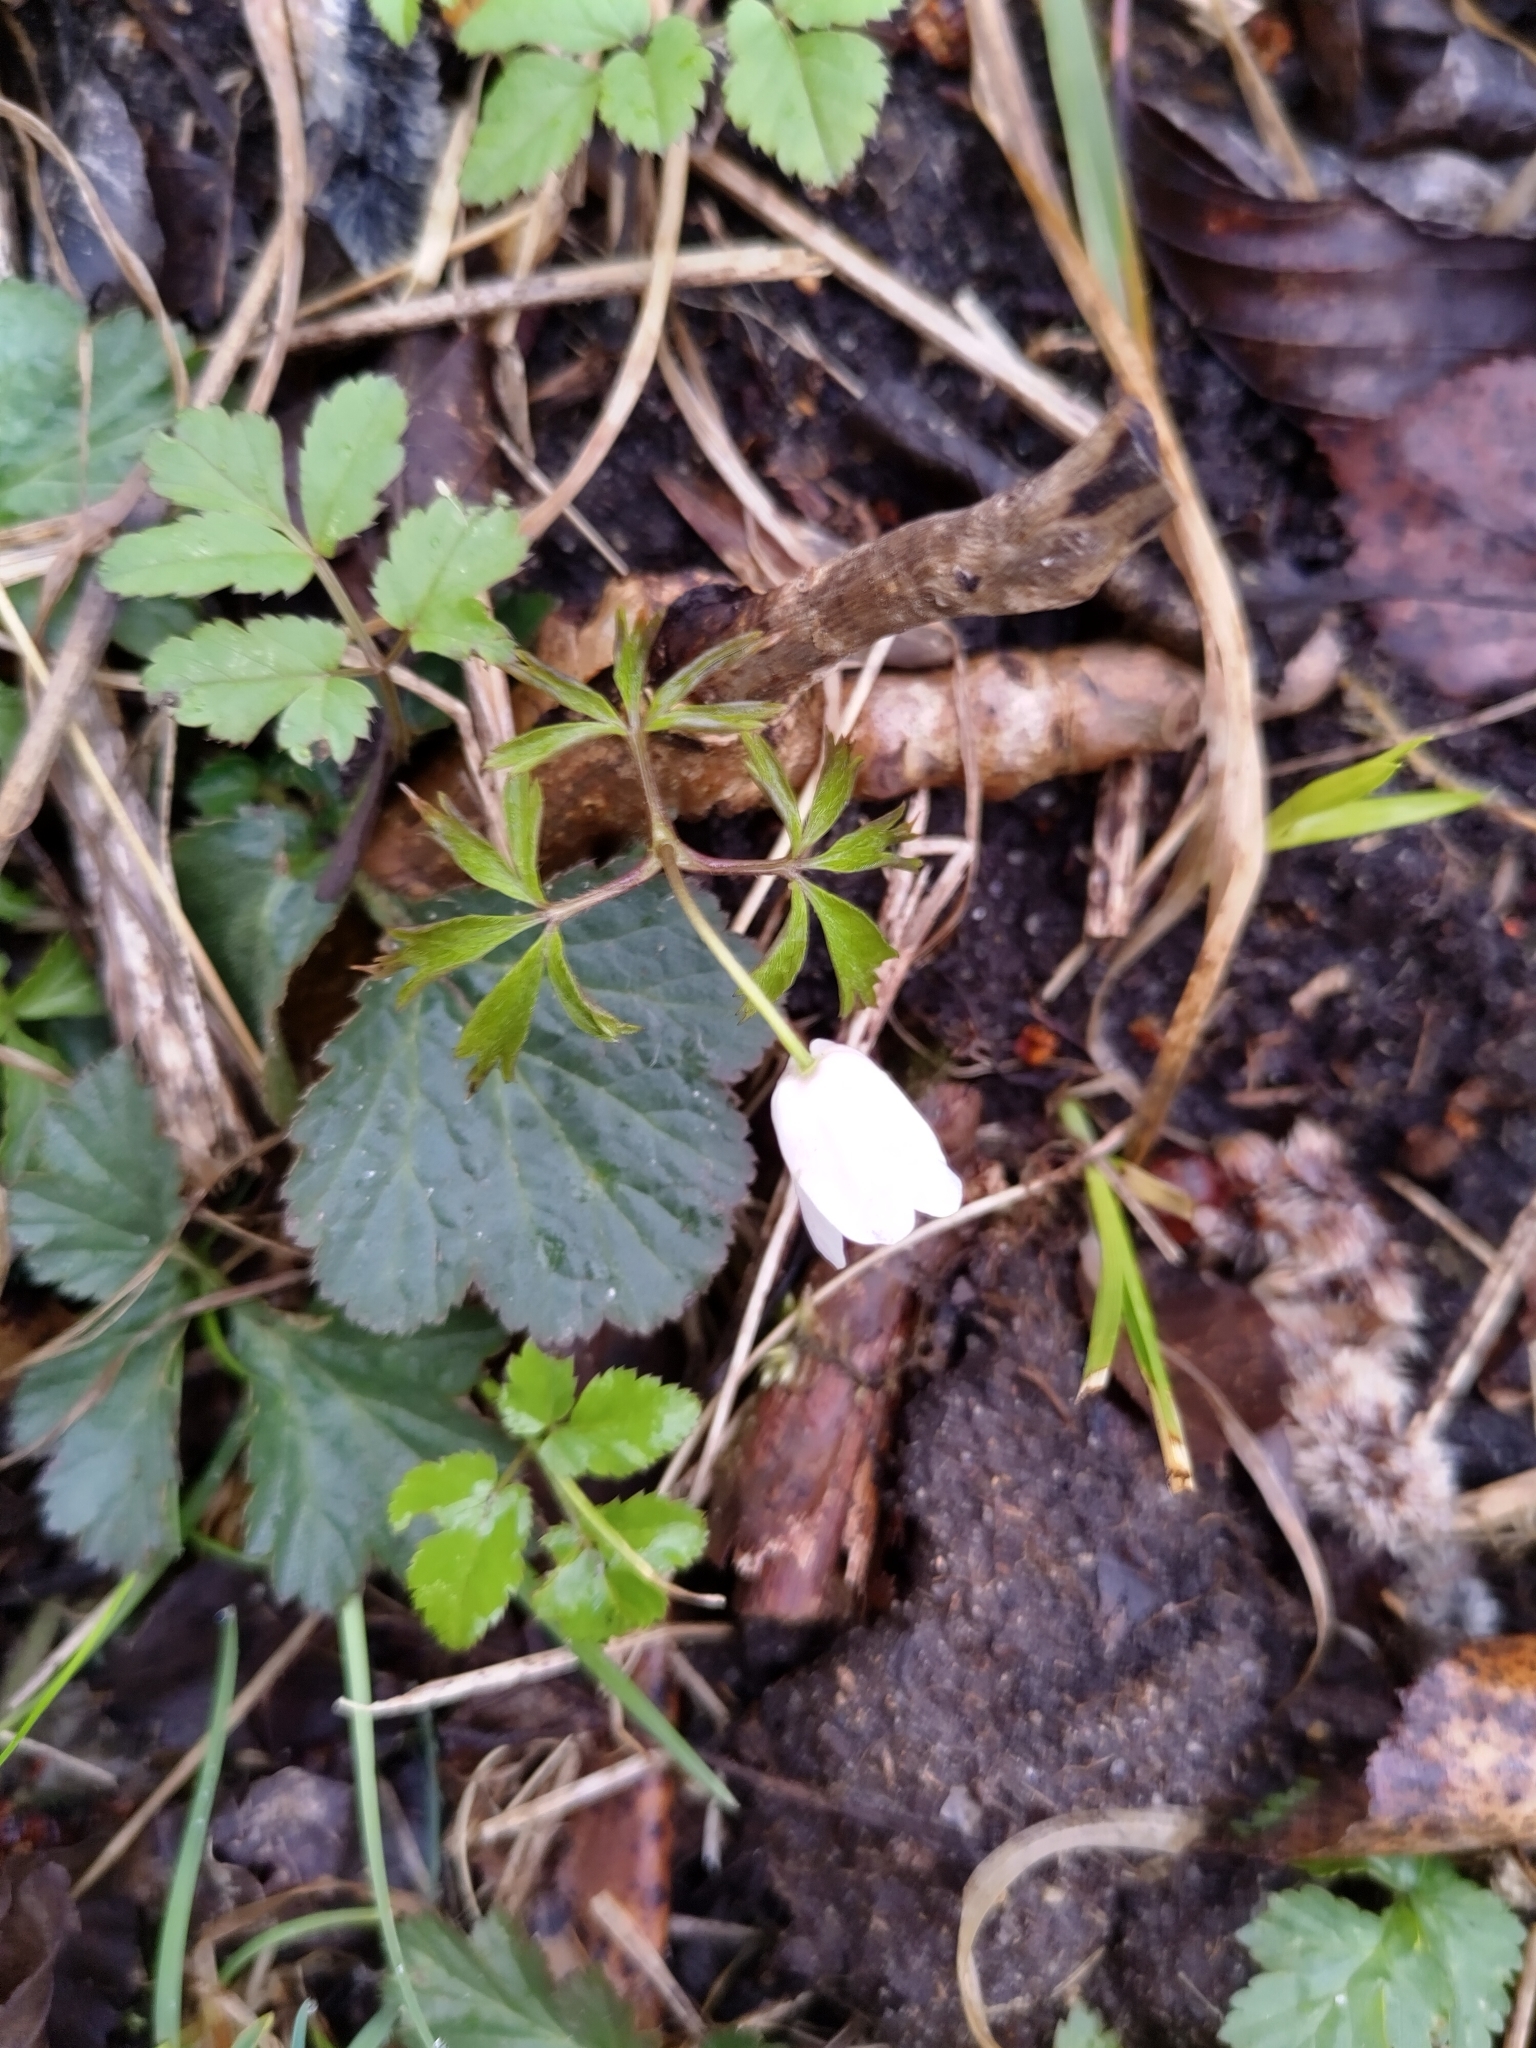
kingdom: Plantae
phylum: Tracheophyta
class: Magnoliopsida
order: Ranunculales
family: Ranunculaceae
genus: Anemone
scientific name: Anemone nemorosa
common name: Wood anemone
